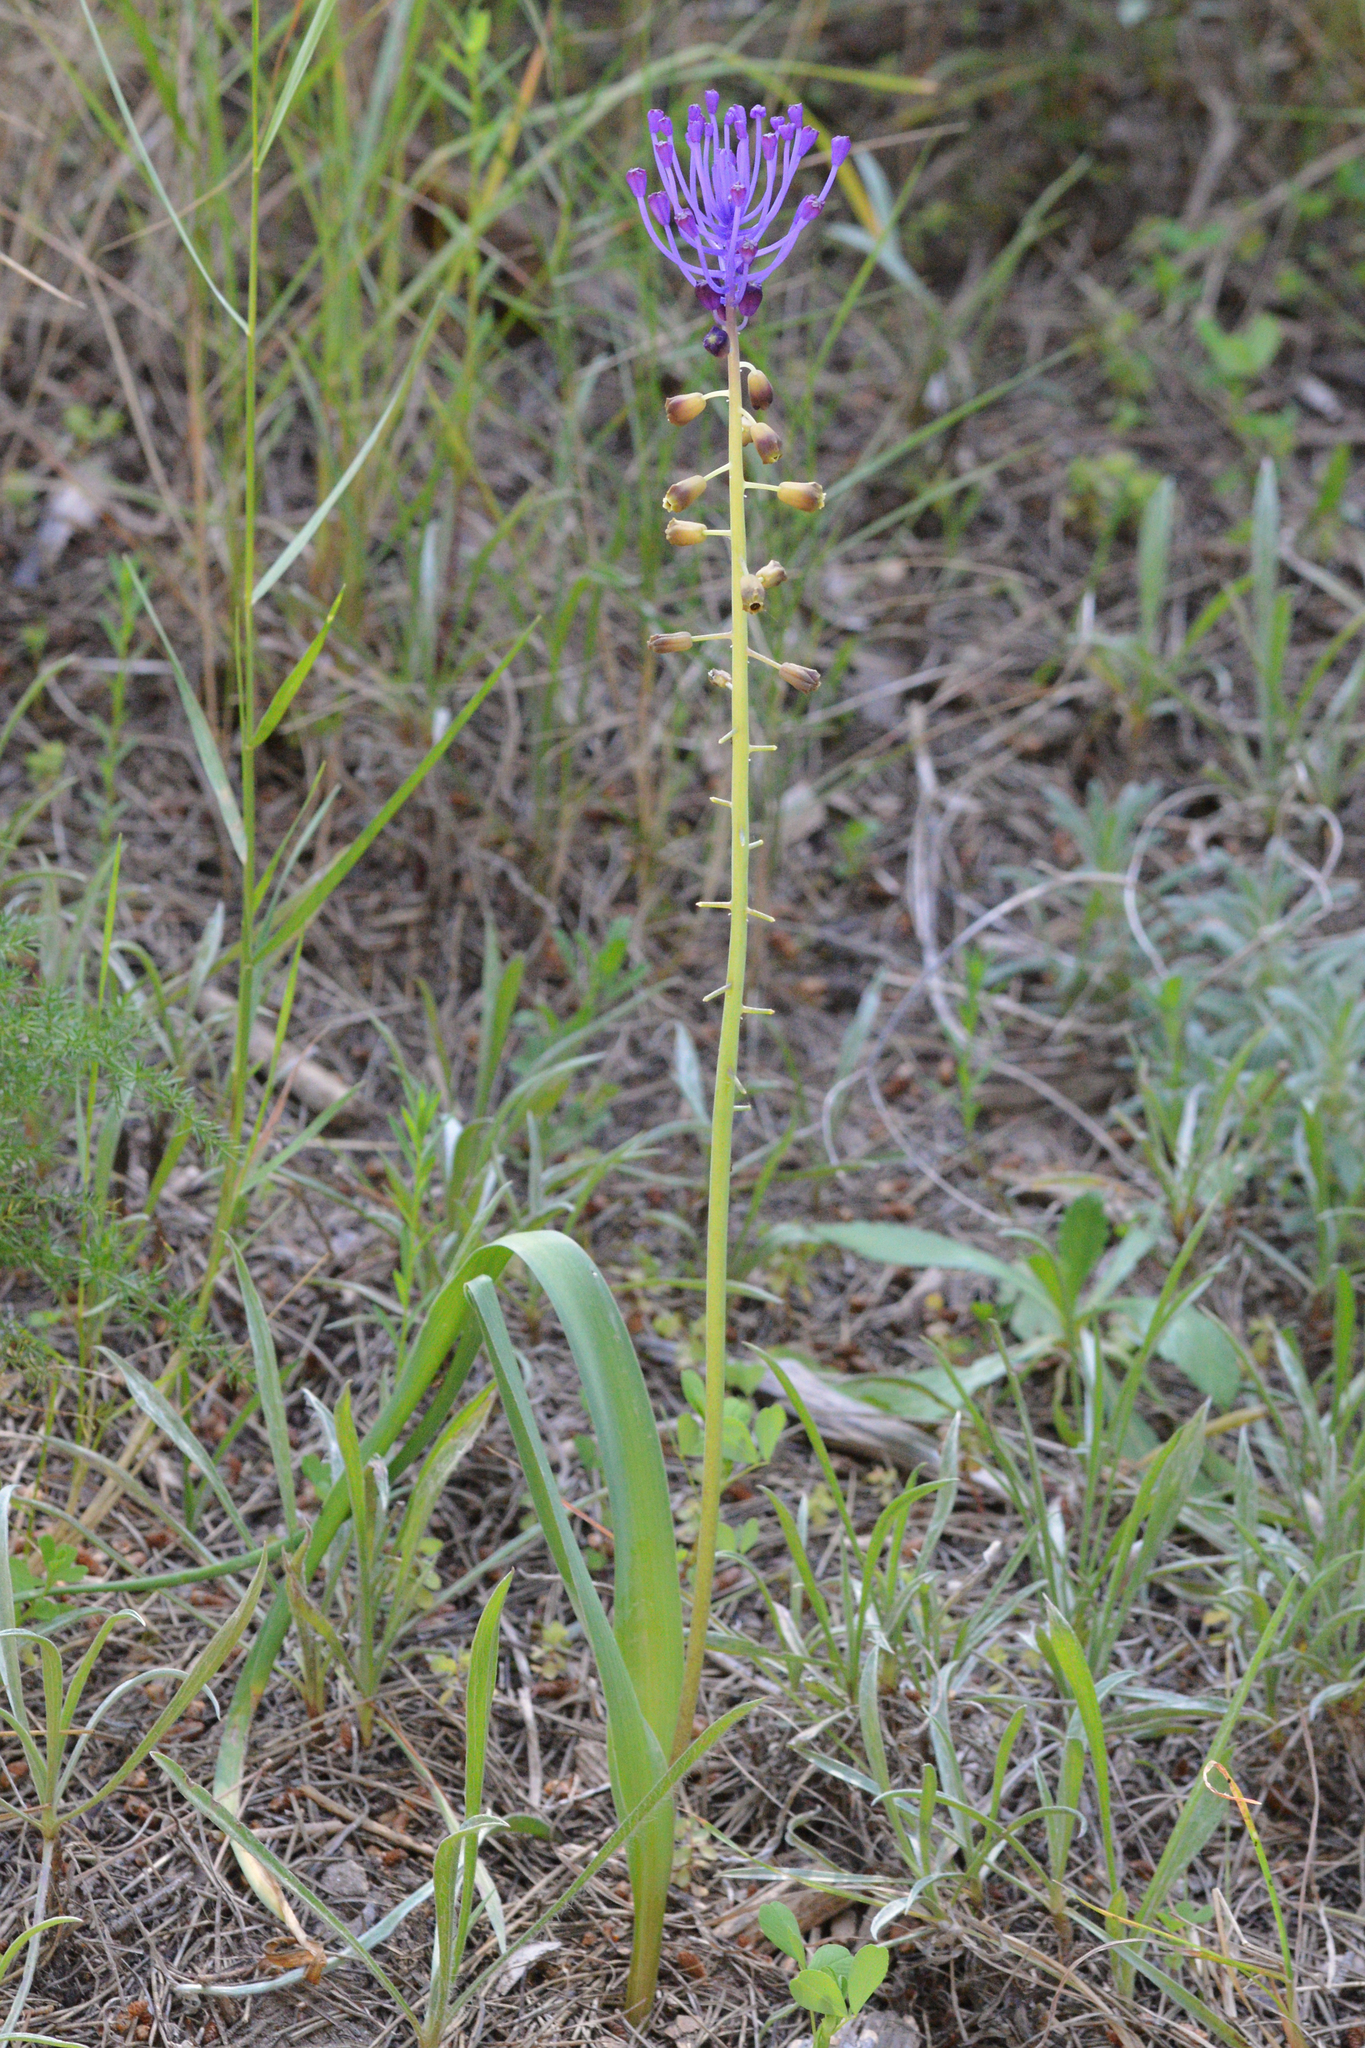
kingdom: Plantae
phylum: Tracheophyta
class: Liliopsida
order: Asparagales
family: Asparagaceae
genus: Muscari
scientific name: Muscari comosum
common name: Tassel hyacinth
